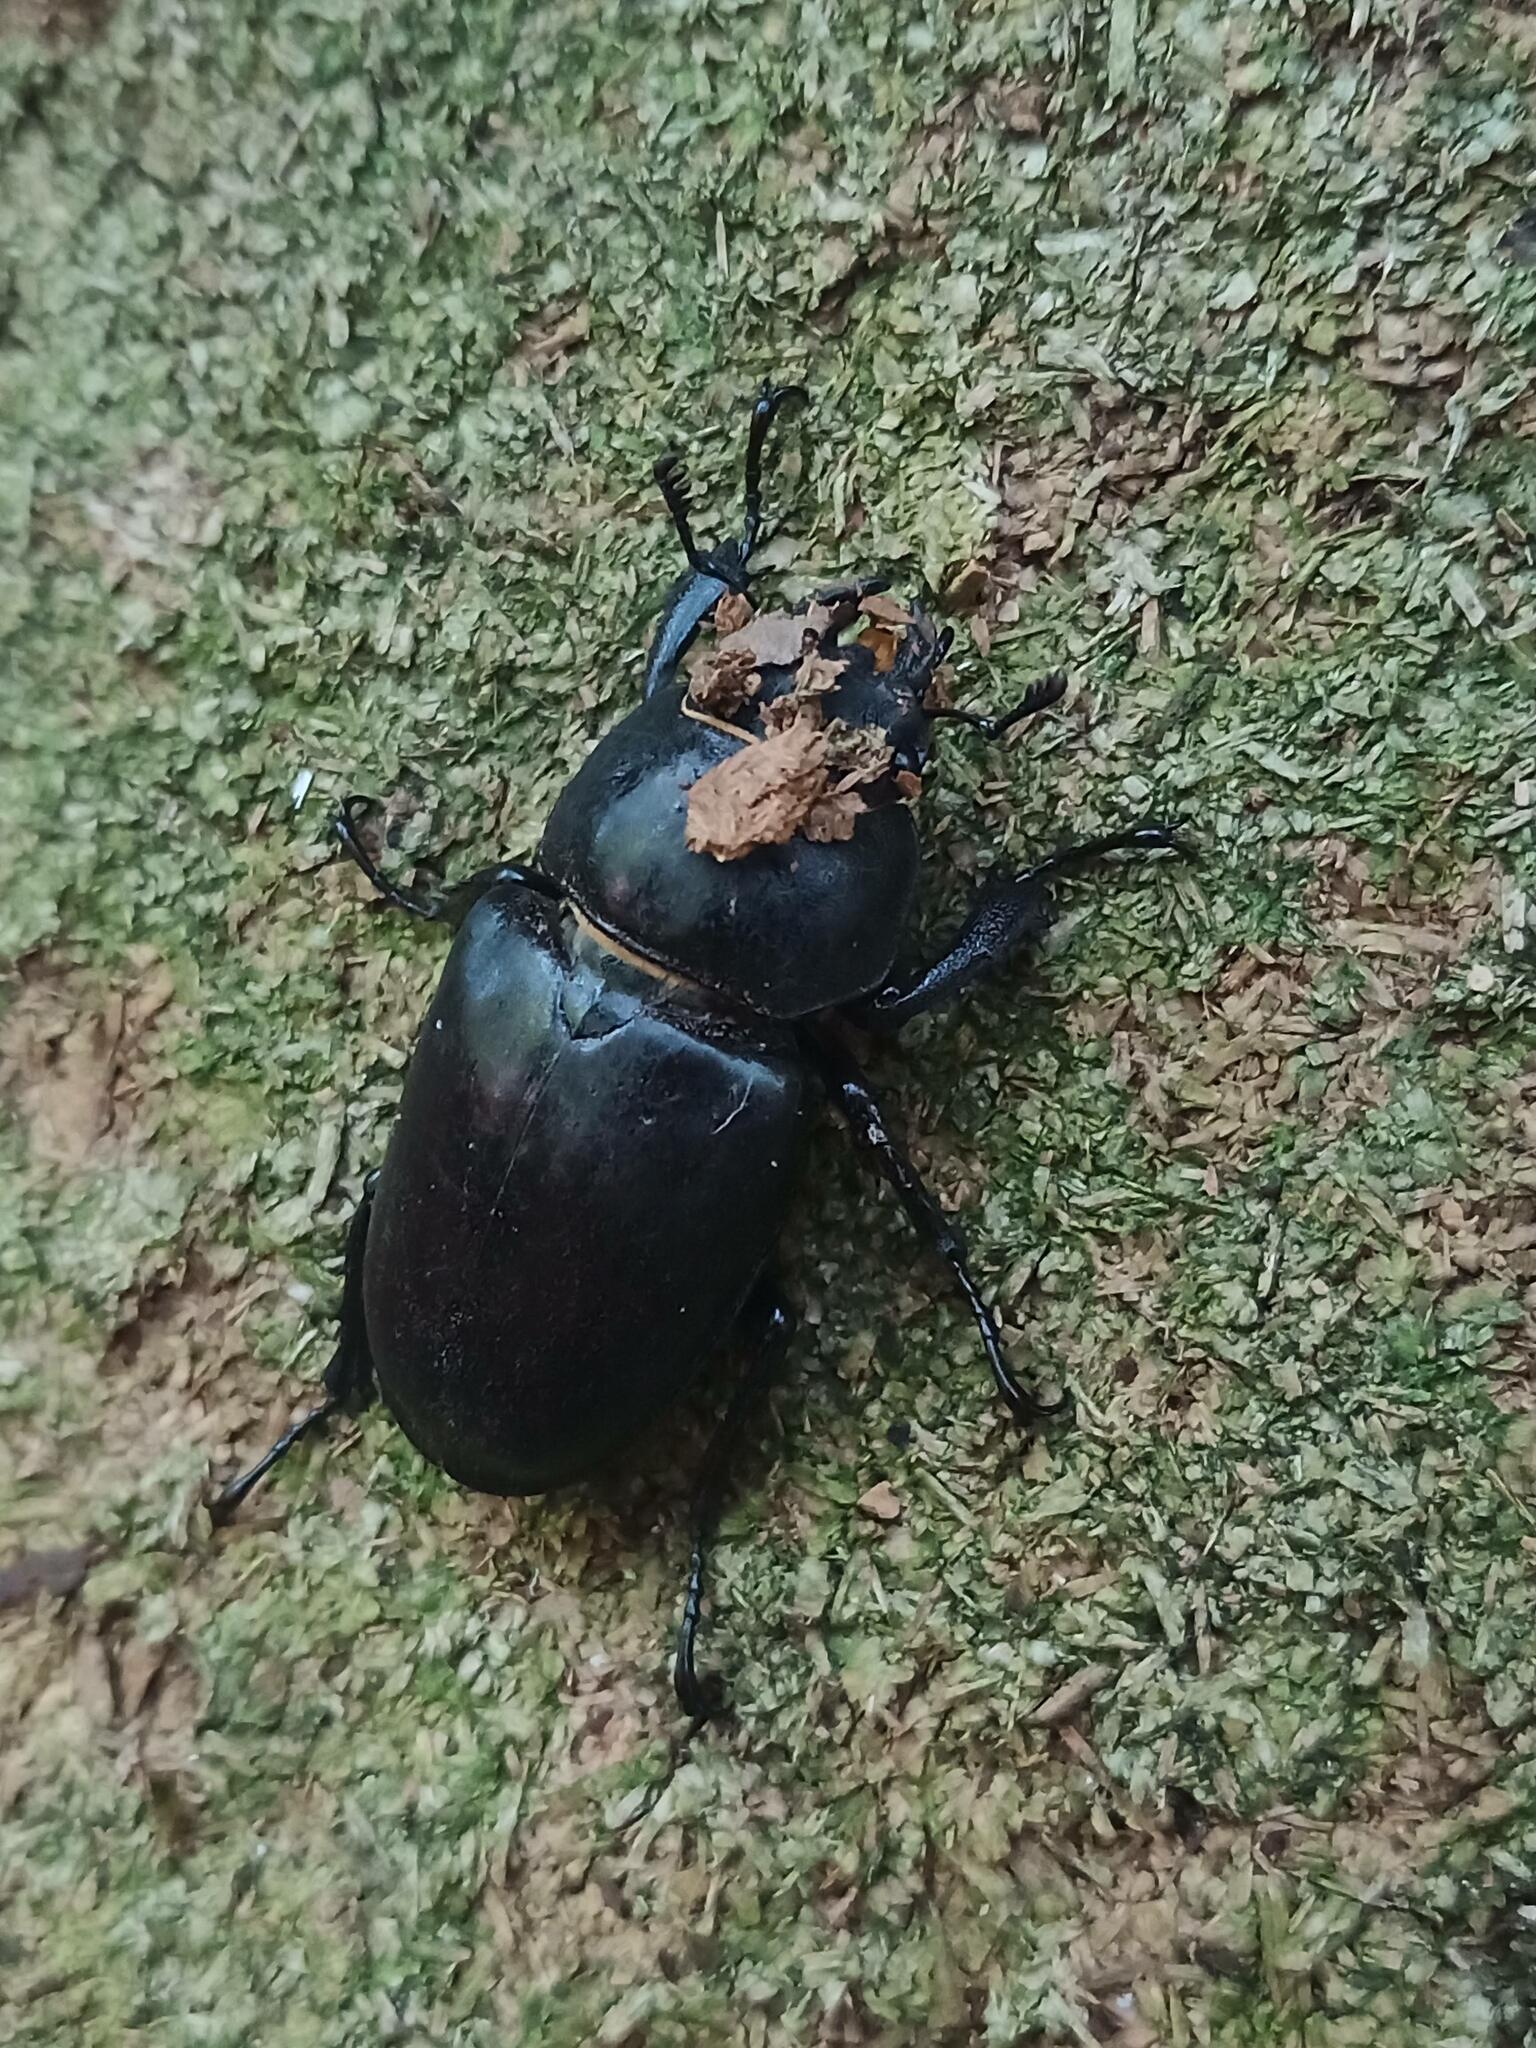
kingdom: Animalia
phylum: Arthropoda
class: Insecta
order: Coleoptera
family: Lucanidae
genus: Lucanus
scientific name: Lucanus cervus
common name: Stag beetle
